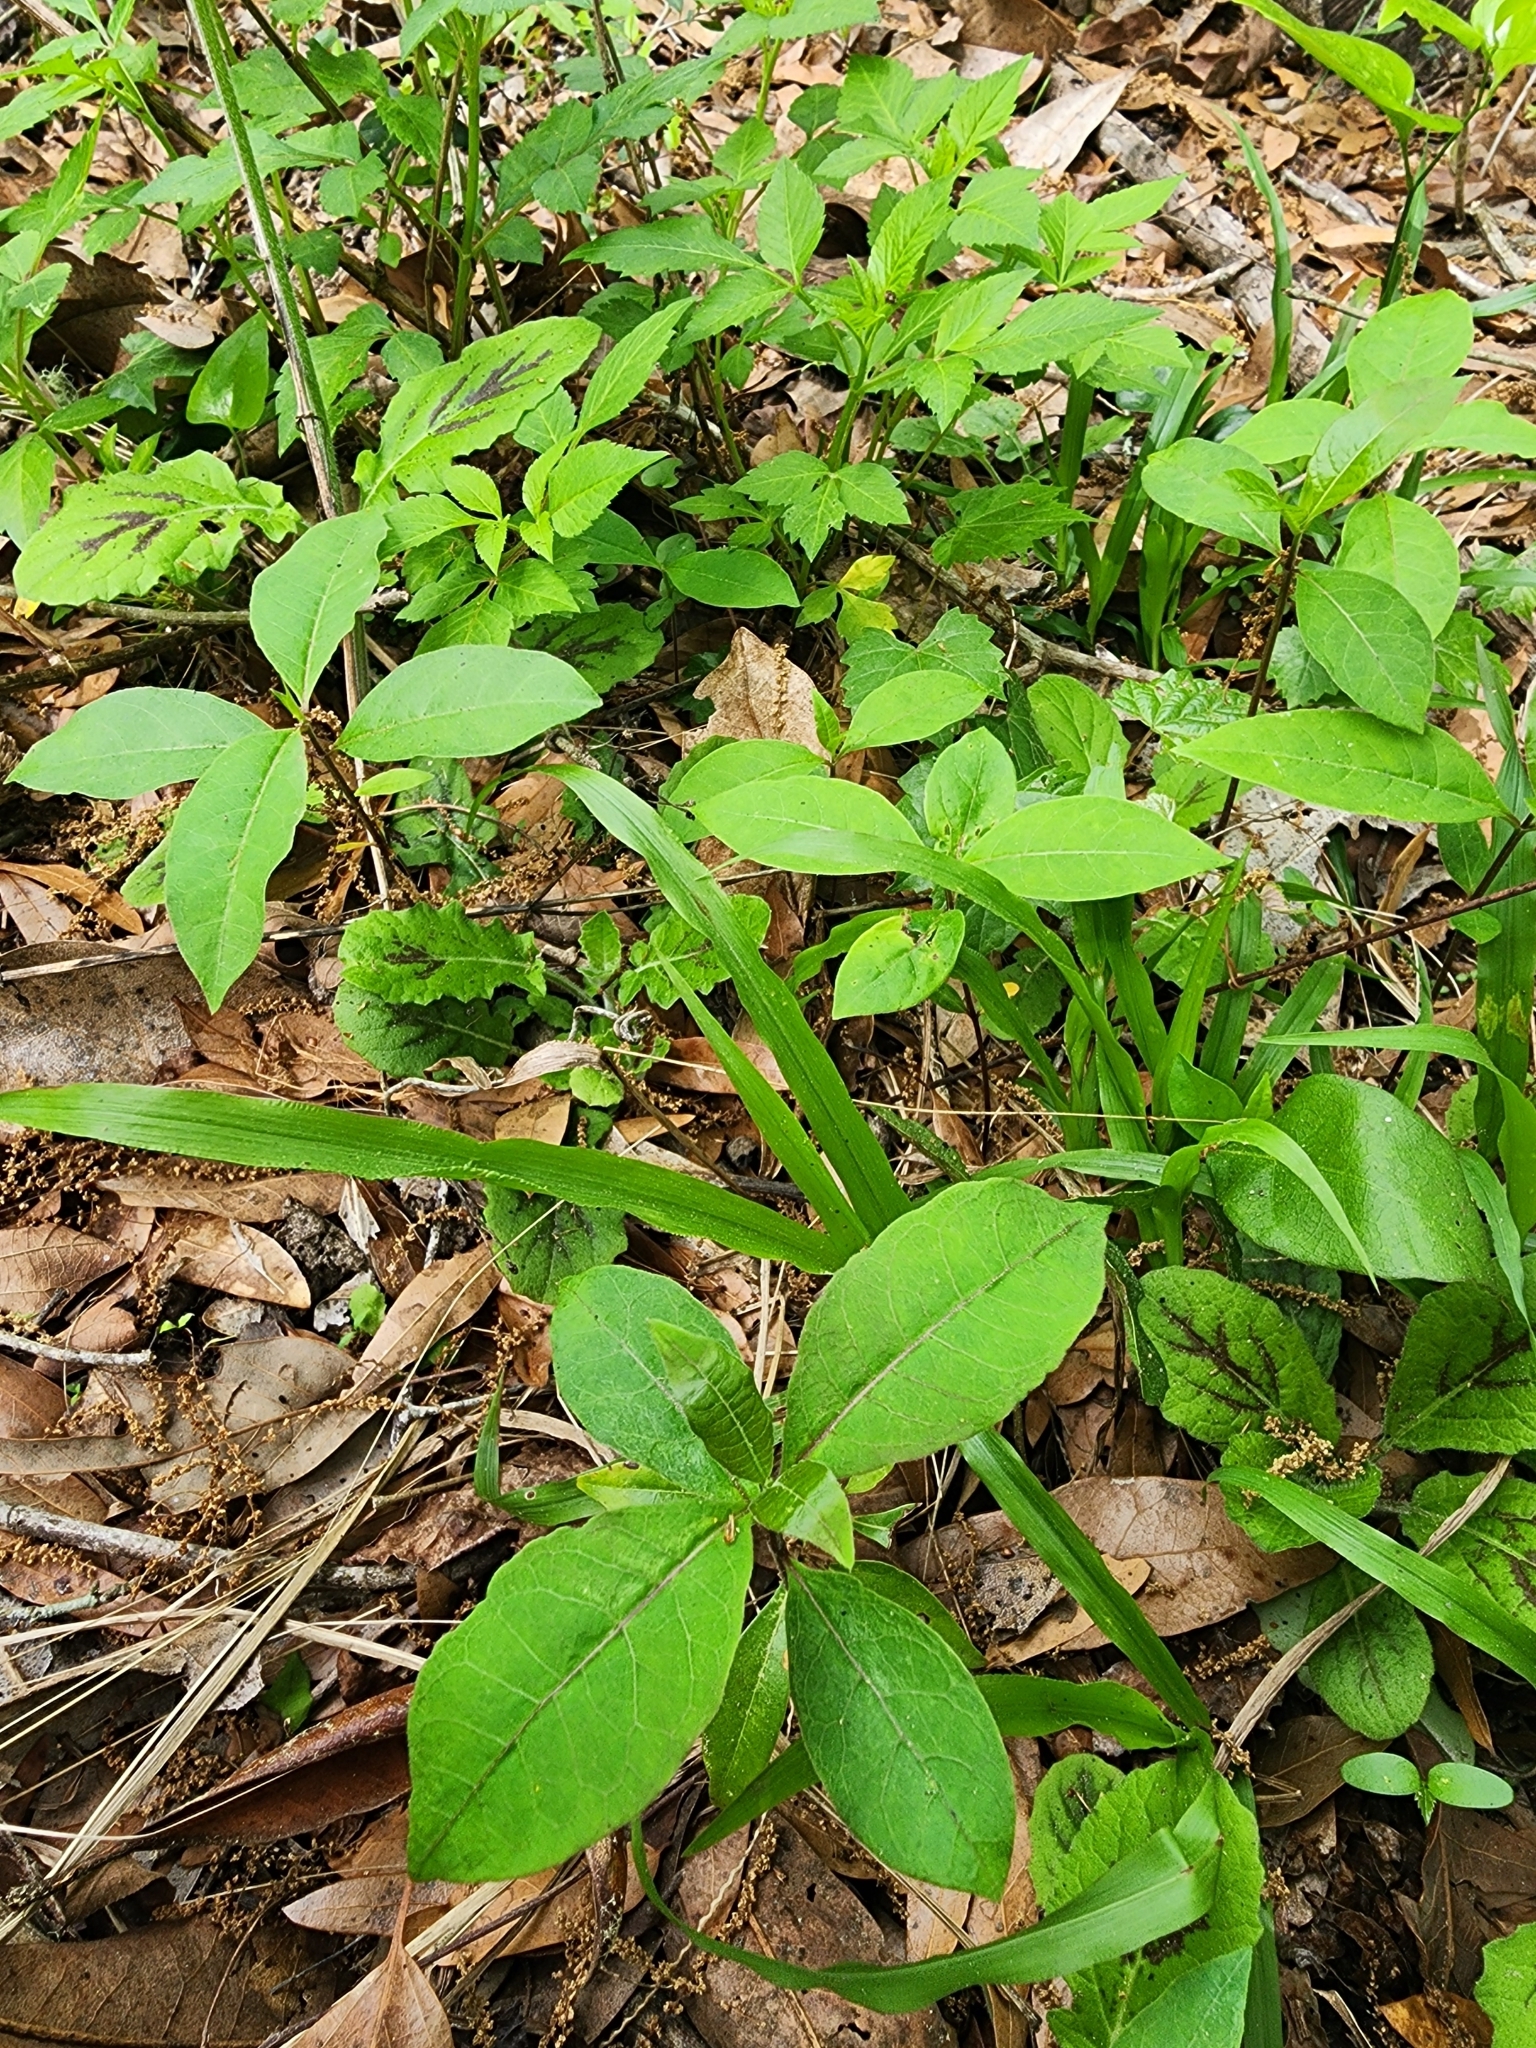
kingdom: Plantae
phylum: Tracheophyta
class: Magnoliopsida
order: Gentianales
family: Apocynaceae
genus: Asclepias
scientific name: Asclepias variegata
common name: Variegated milkweed
